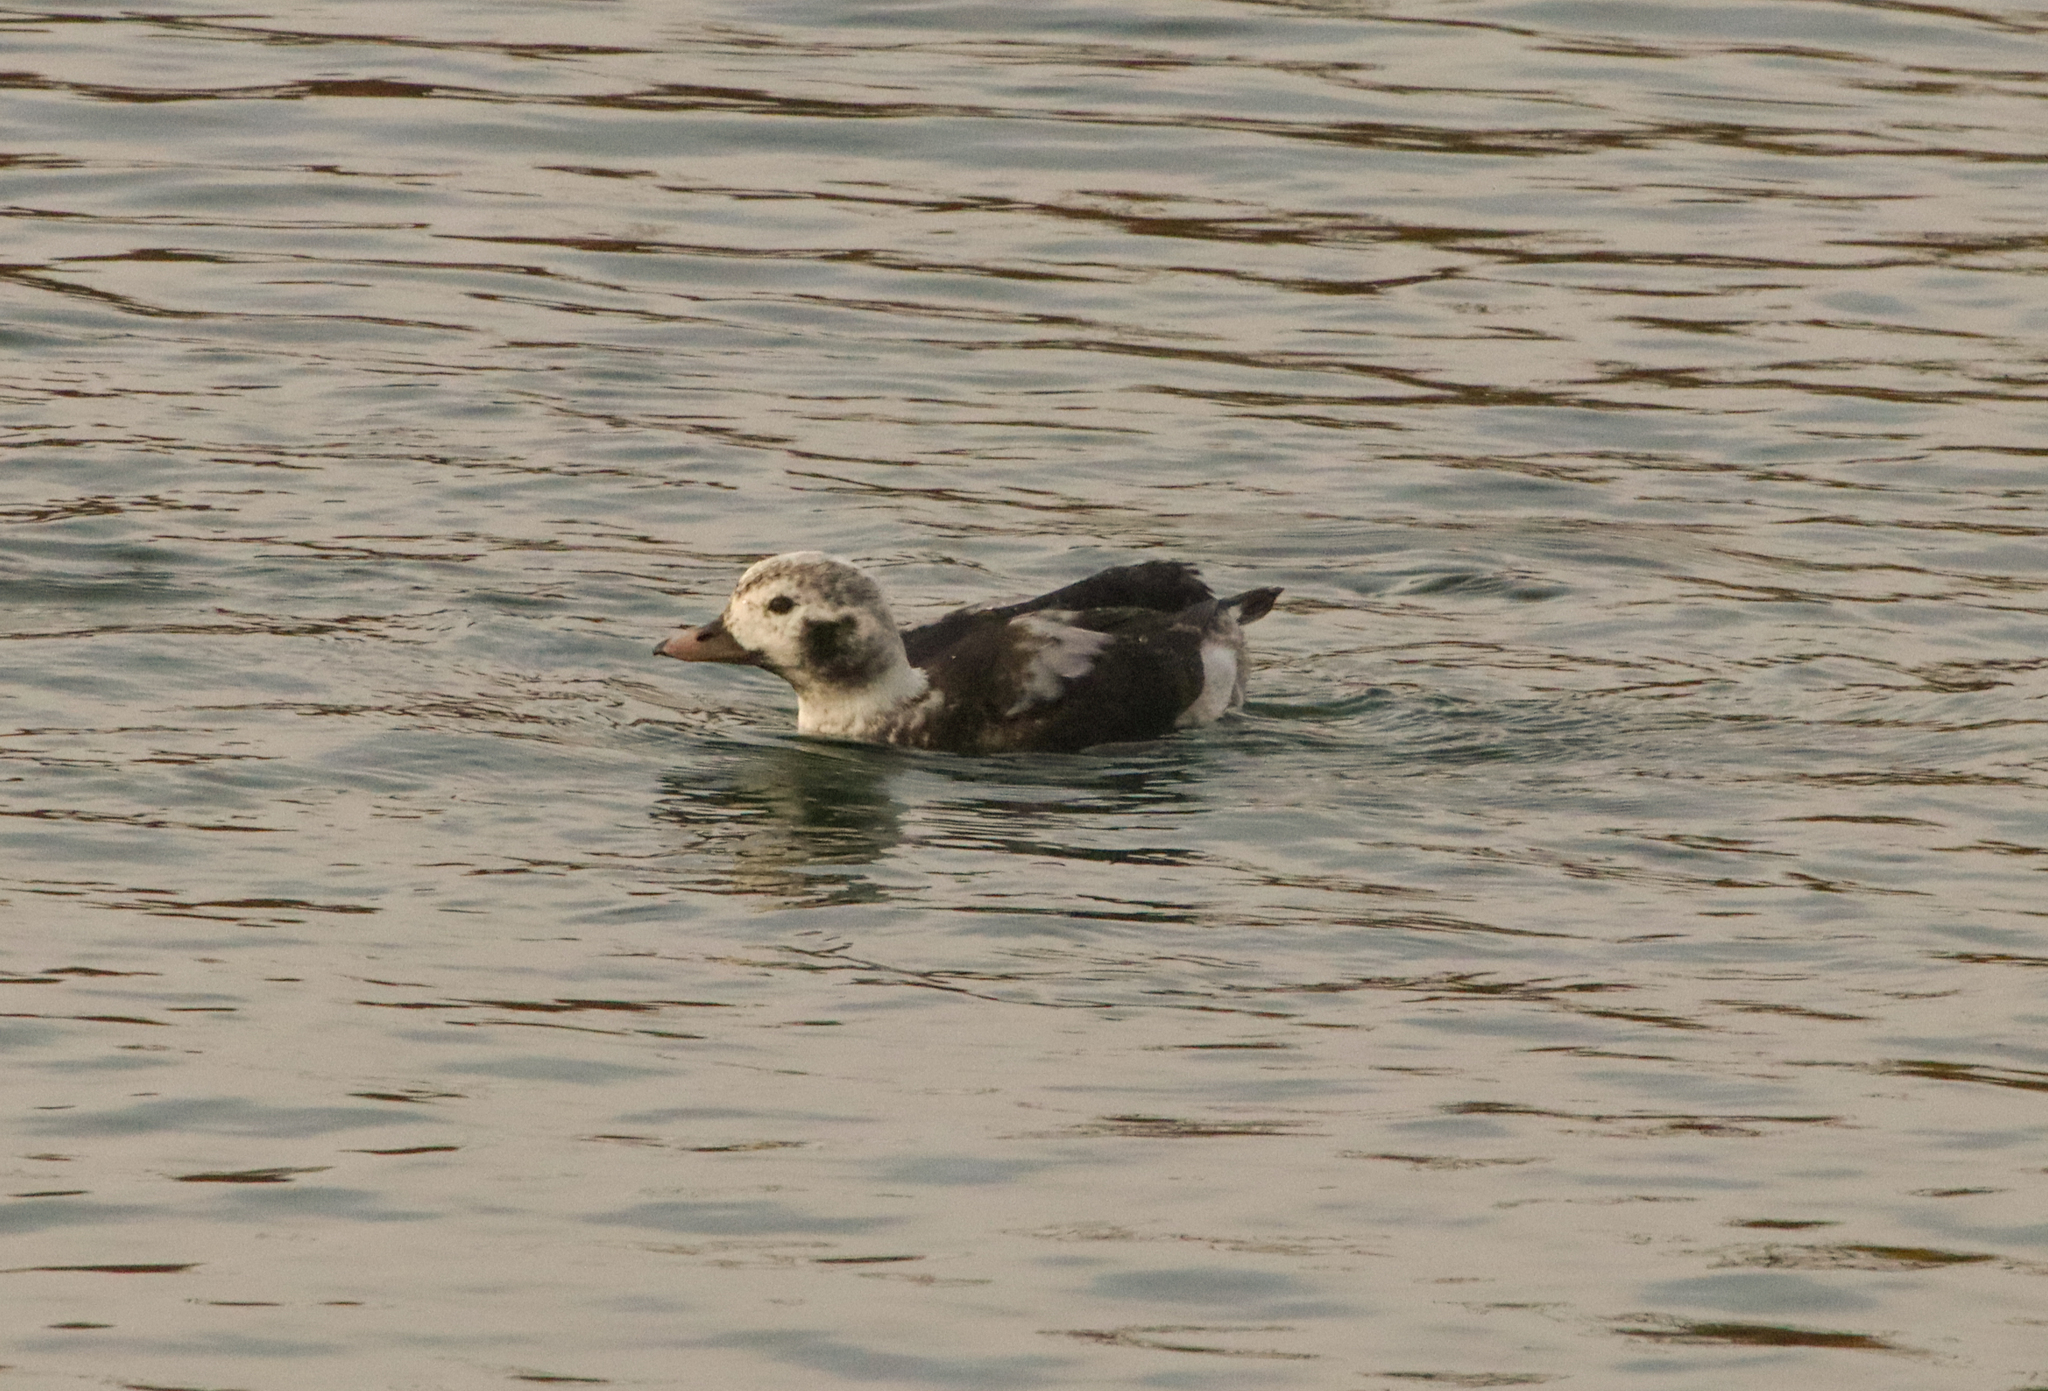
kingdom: Animalia
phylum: Chordata
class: Aves
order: Anseriformes
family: Anatidae
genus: Clangula
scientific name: Clangula hyemalis
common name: Long-tailed duck
